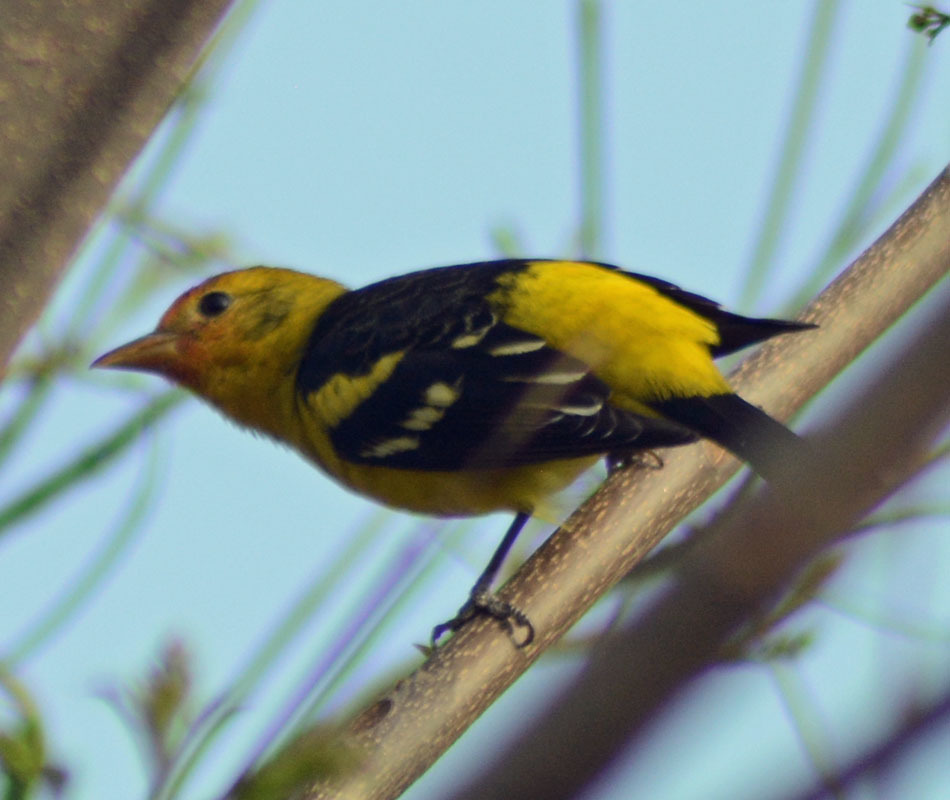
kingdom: Animalia
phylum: Chordata
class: Aves
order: Passeriformes
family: Cardinalidae
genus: Piranga
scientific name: Piranga ludoviciana
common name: Western tanager
